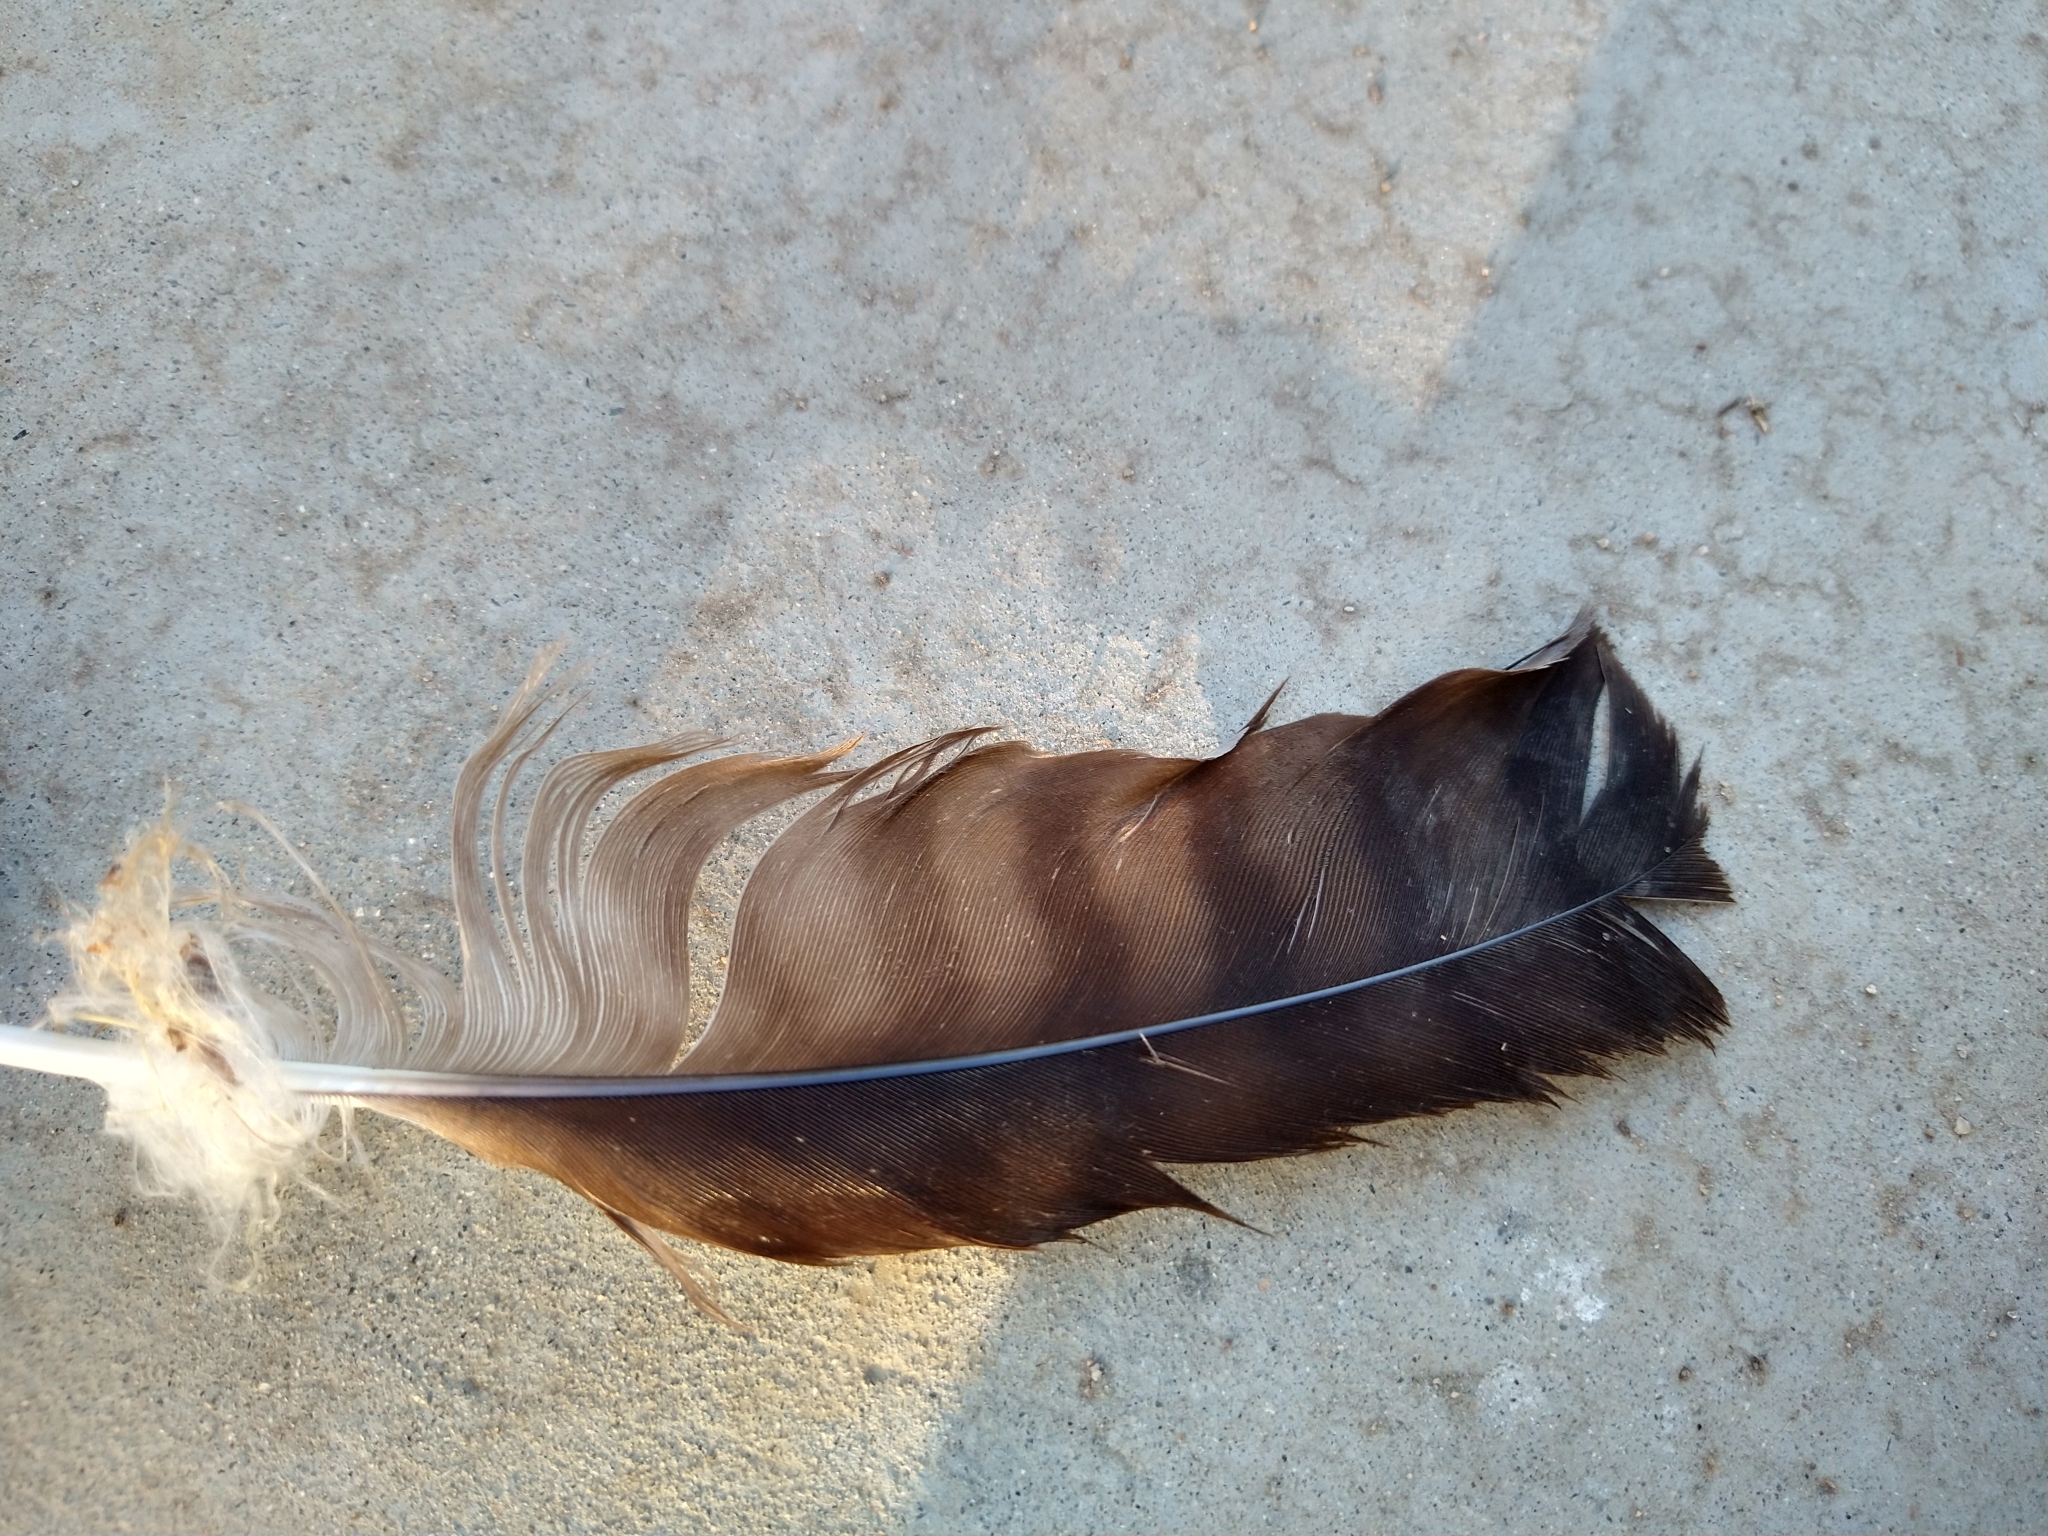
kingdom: Animalia
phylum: Chordata
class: Aves
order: Accipitriformes
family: Accipitridae
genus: Buteo
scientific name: Buteo swainsoni
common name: Swainson's hawk
